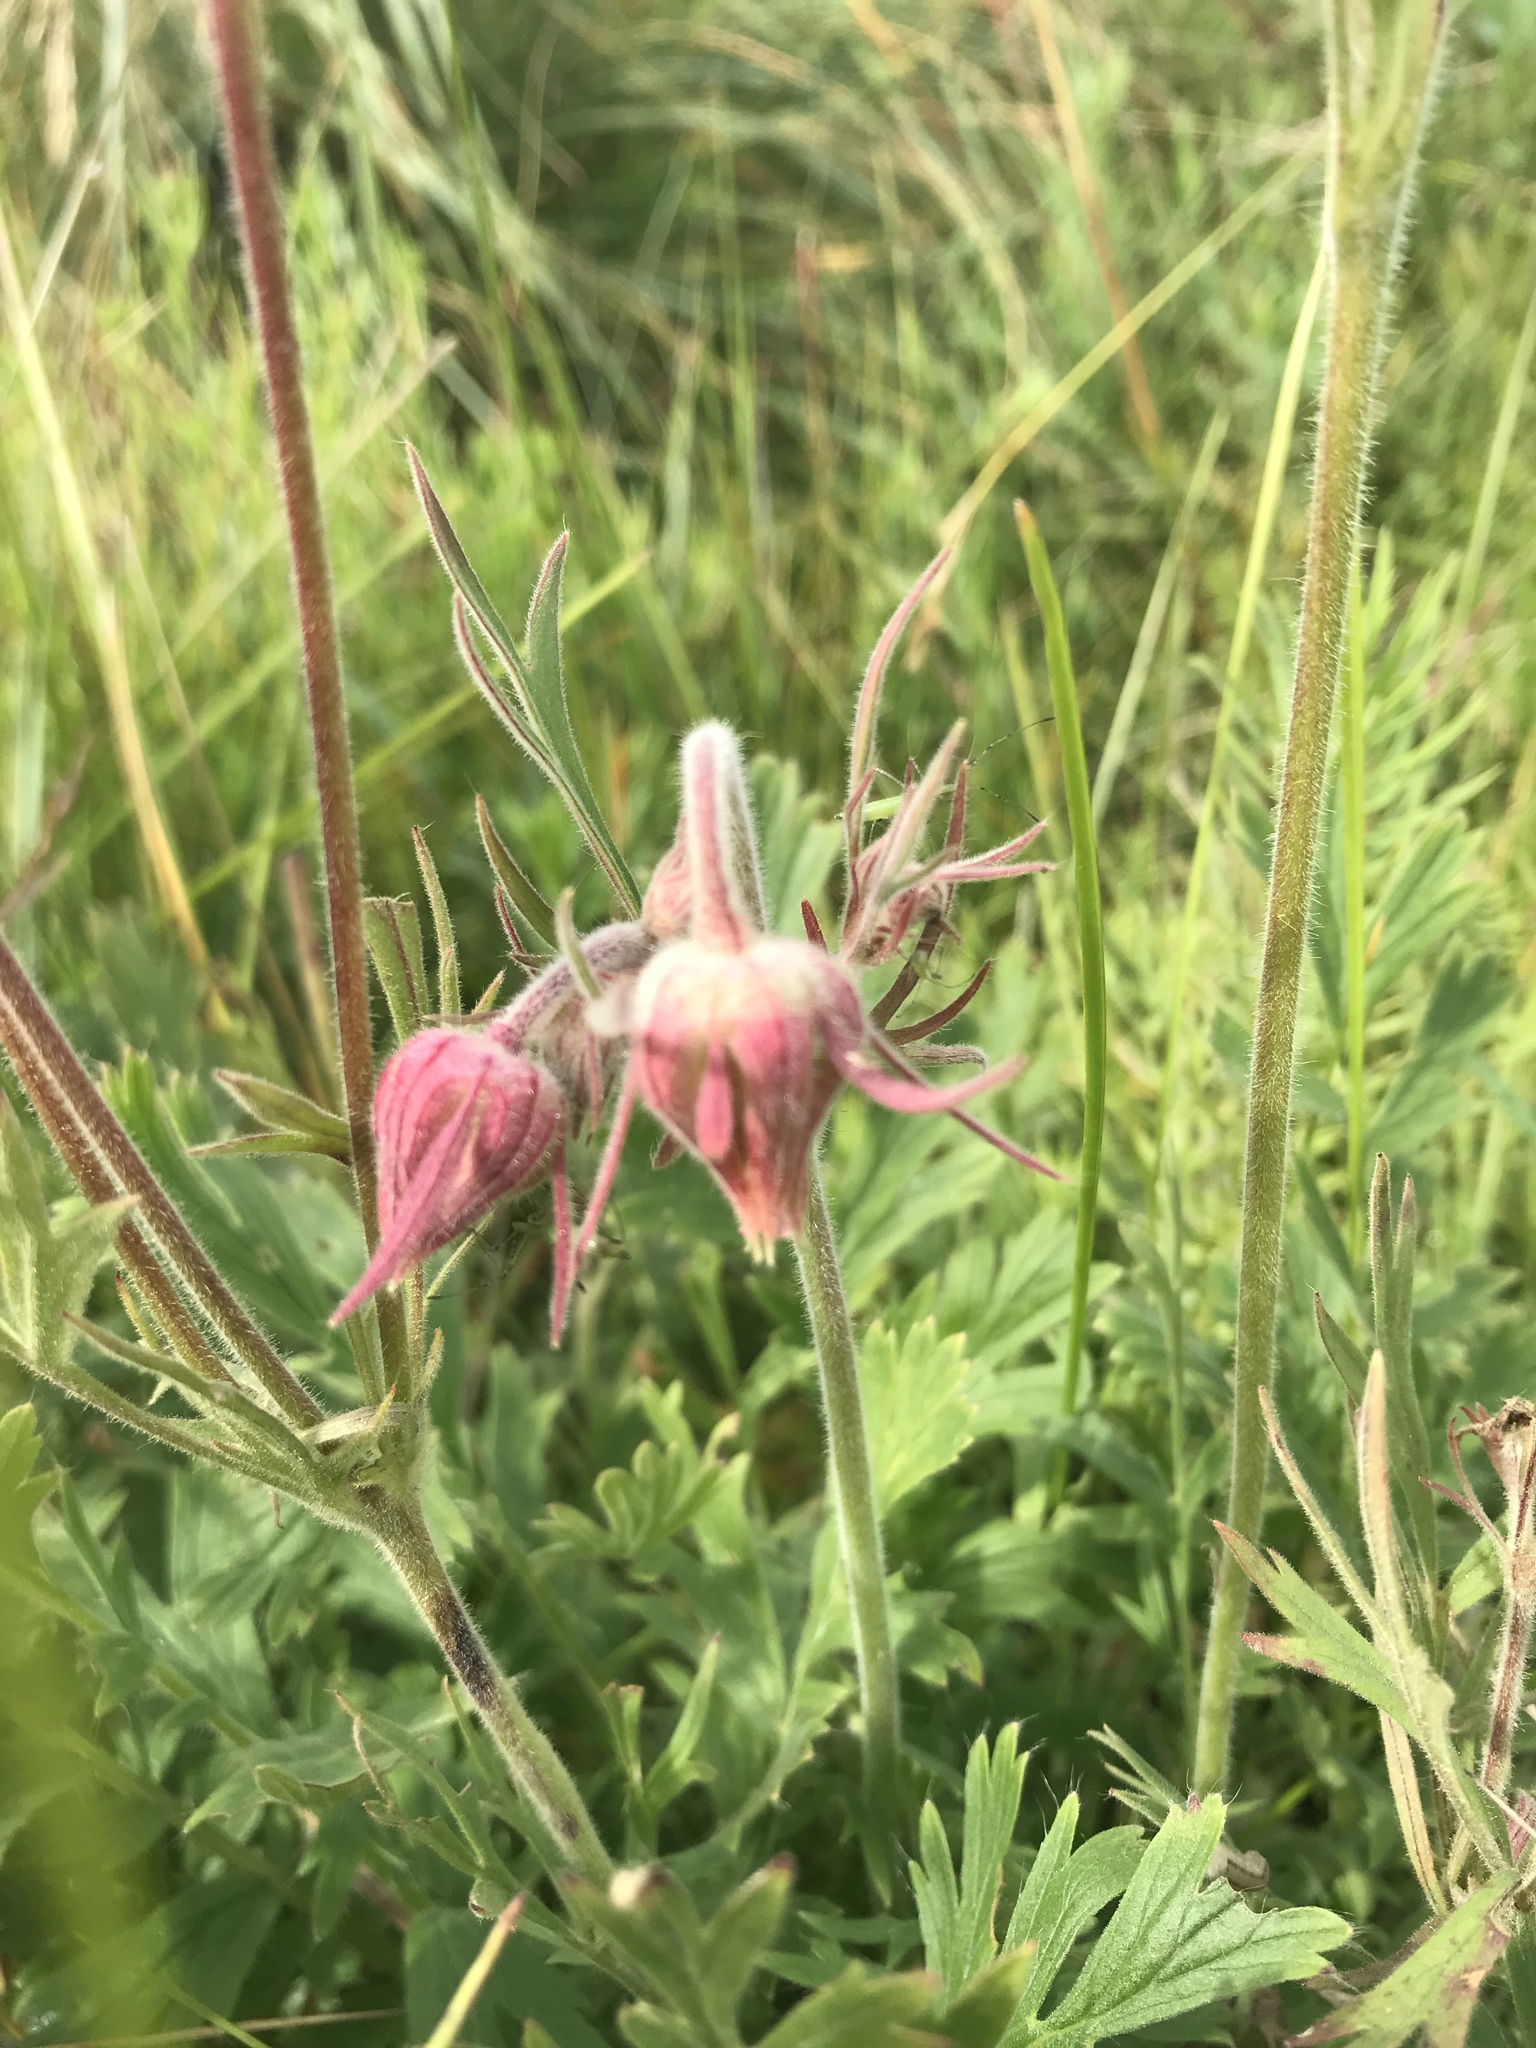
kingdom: Plantae
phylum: Tracheophyta
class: Magnoliopsida
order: Rosales
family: Rosaceae
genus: Geum
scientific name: Geum triflorum
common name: Old man's whiskers
